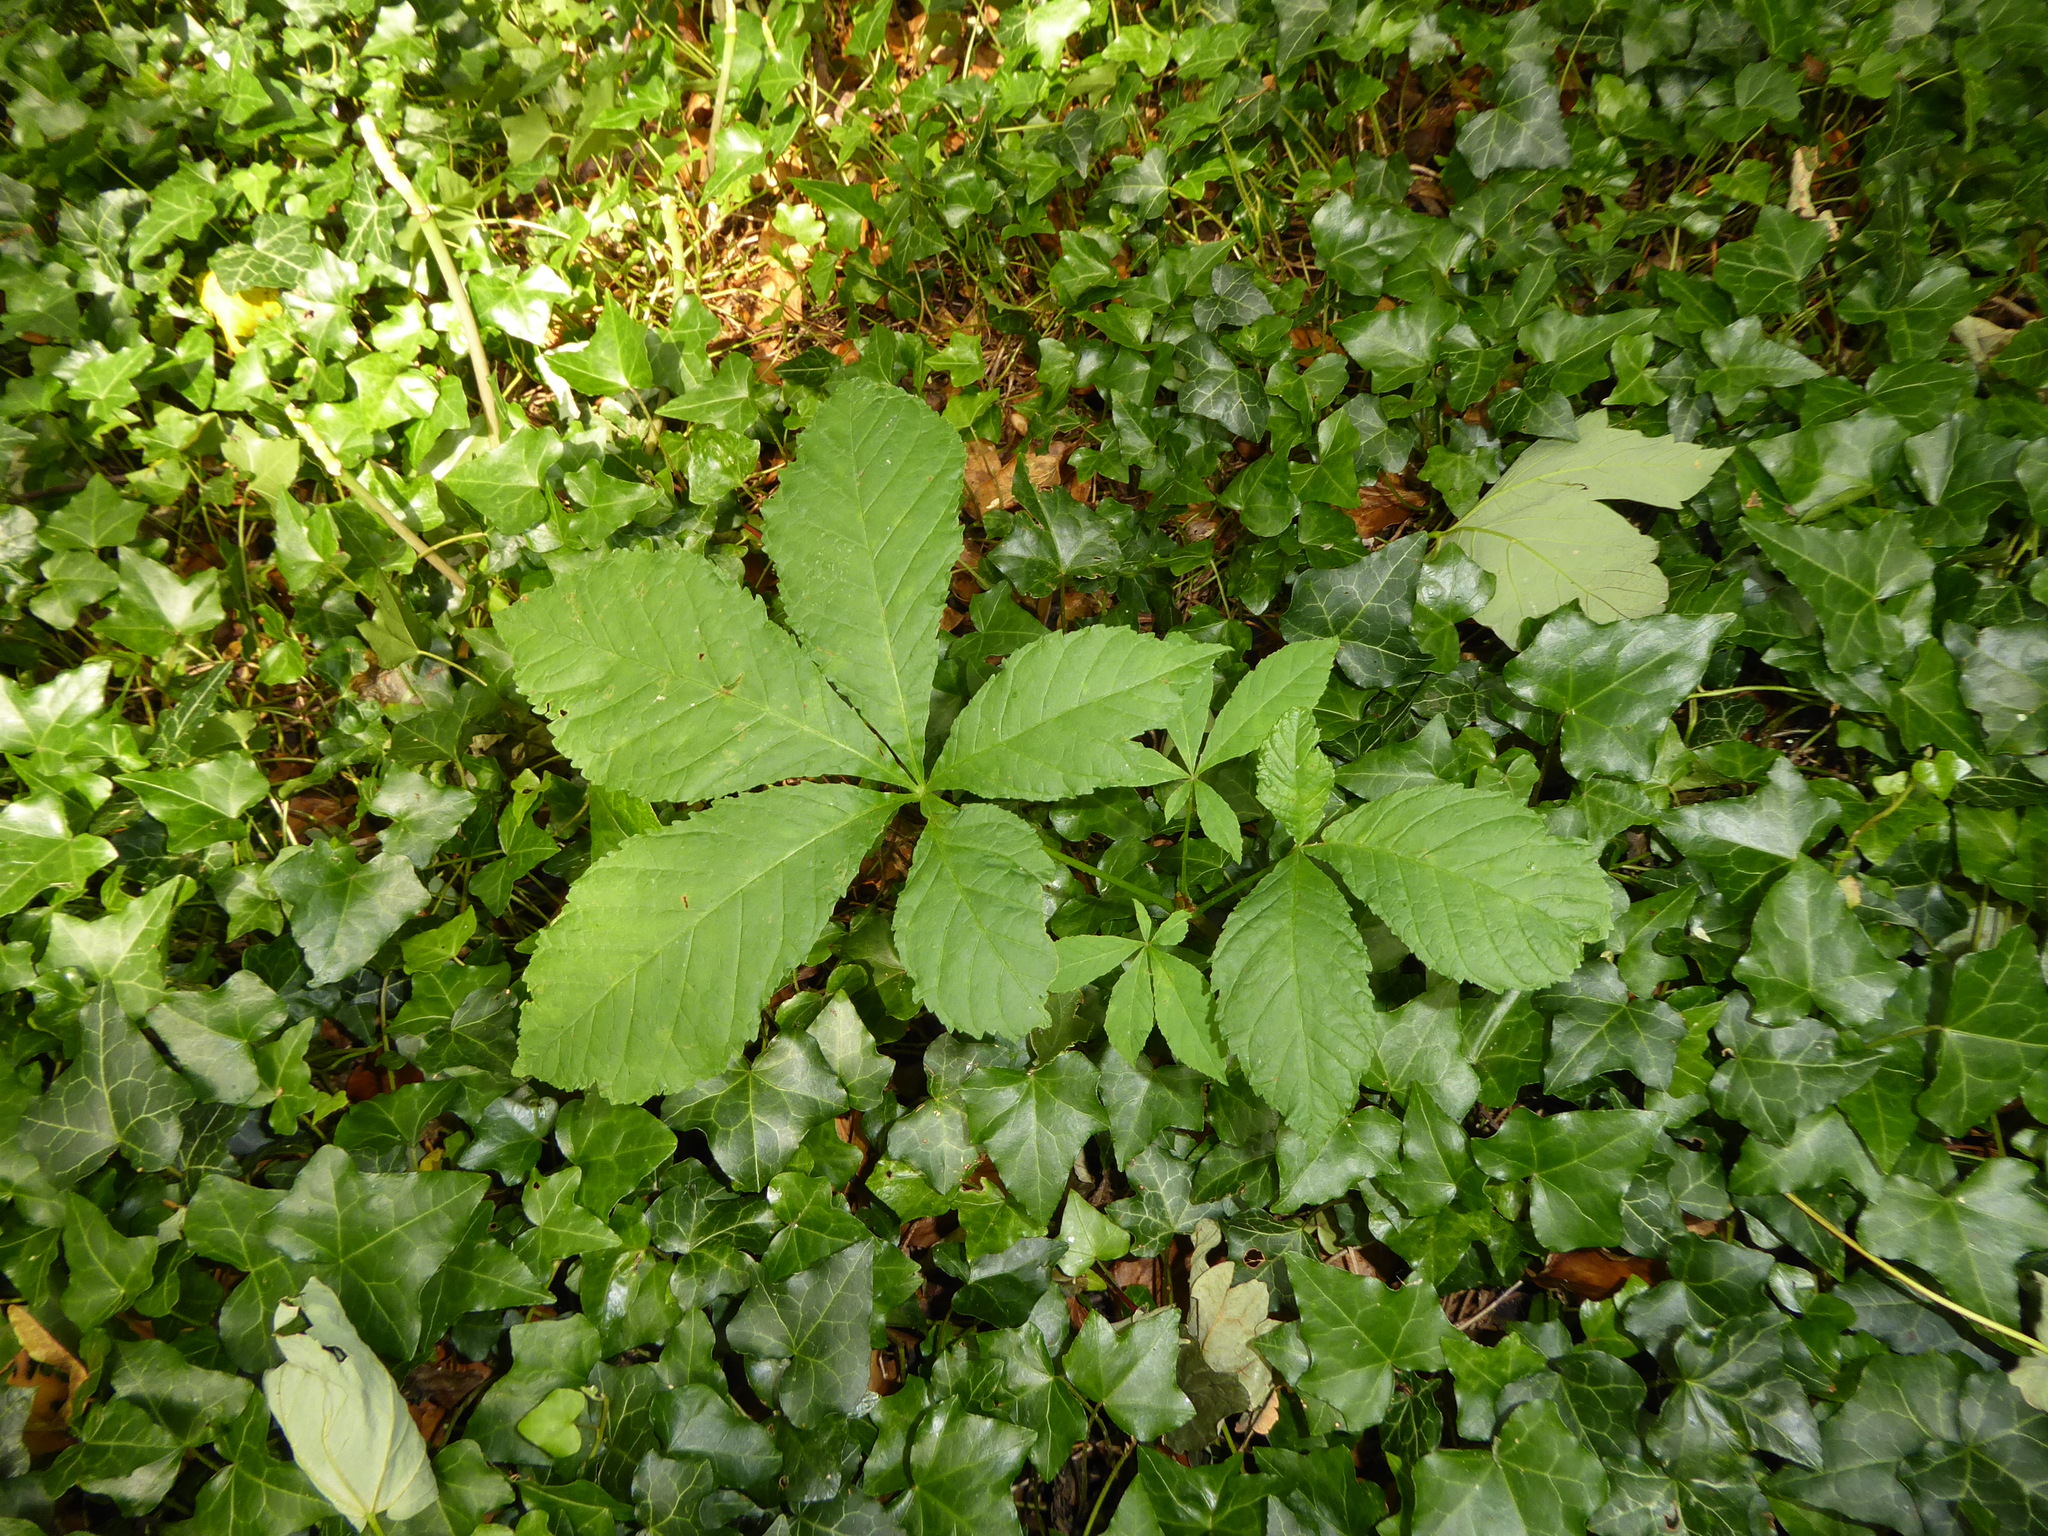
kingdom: Plantae
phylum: Tracheophyta
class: Magnoliopsida
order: Sapindales
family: Sapindaceae
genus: Aesculus
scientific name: Aesculus hippocastanum
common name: Horse-chestnut
